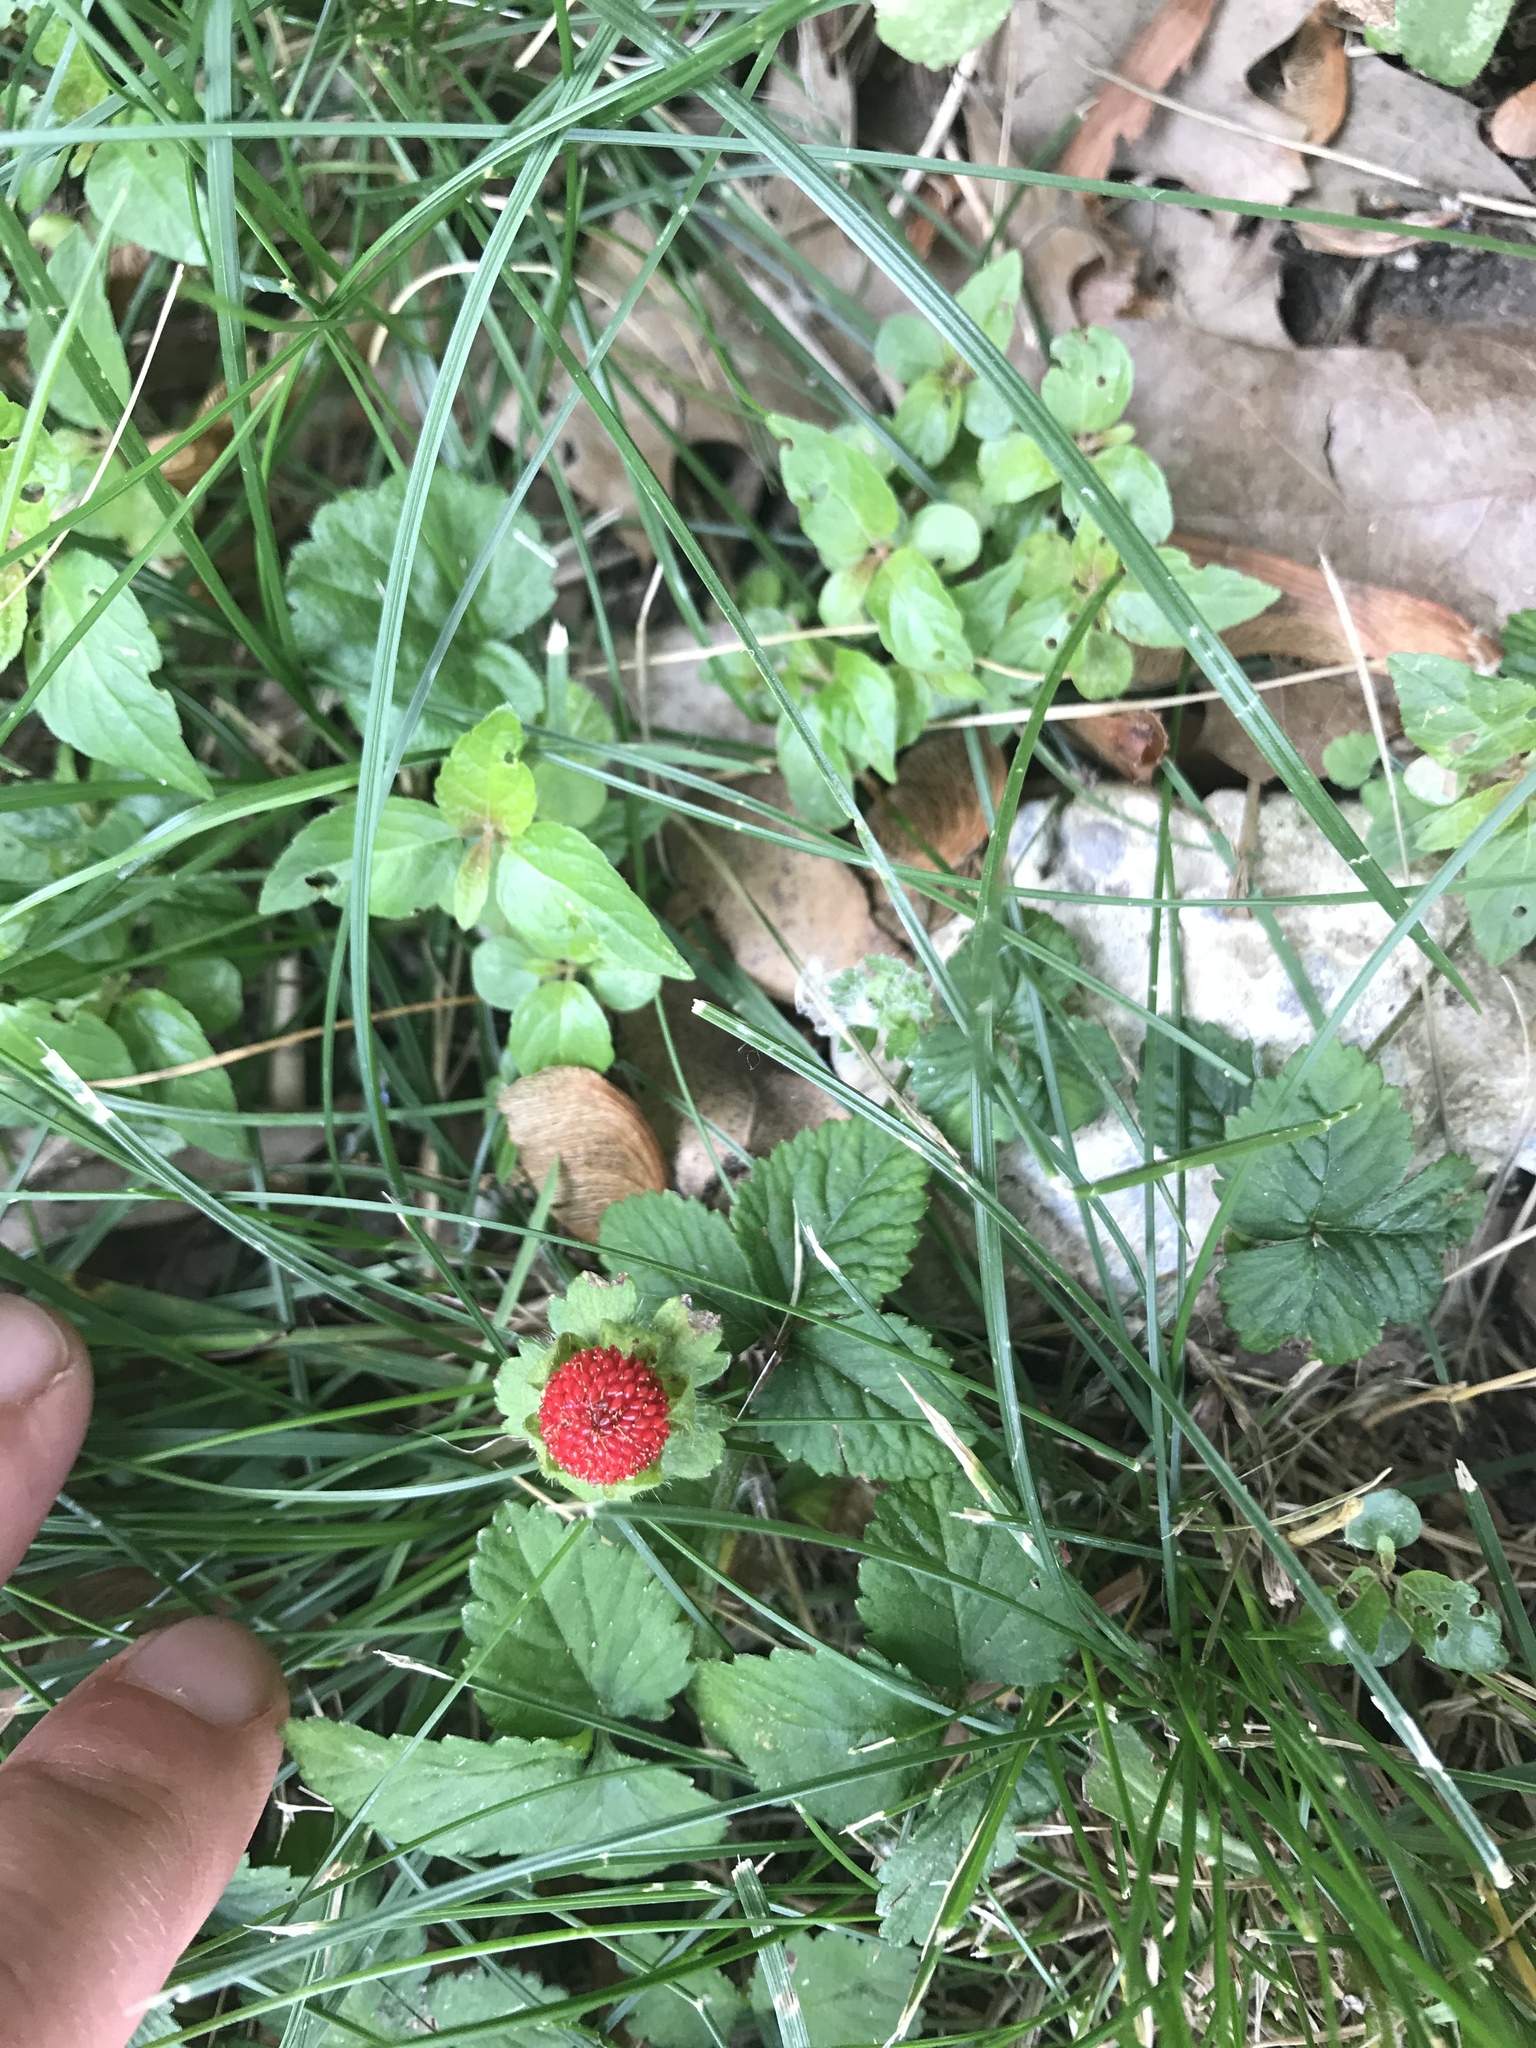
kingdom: Plantae
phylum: Tracheophyta
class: Magnoliopsida
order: Rosales
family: Rosaceae
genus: Potentilla
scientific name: Potentilla indica
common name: Yellow-flowered strawberry
